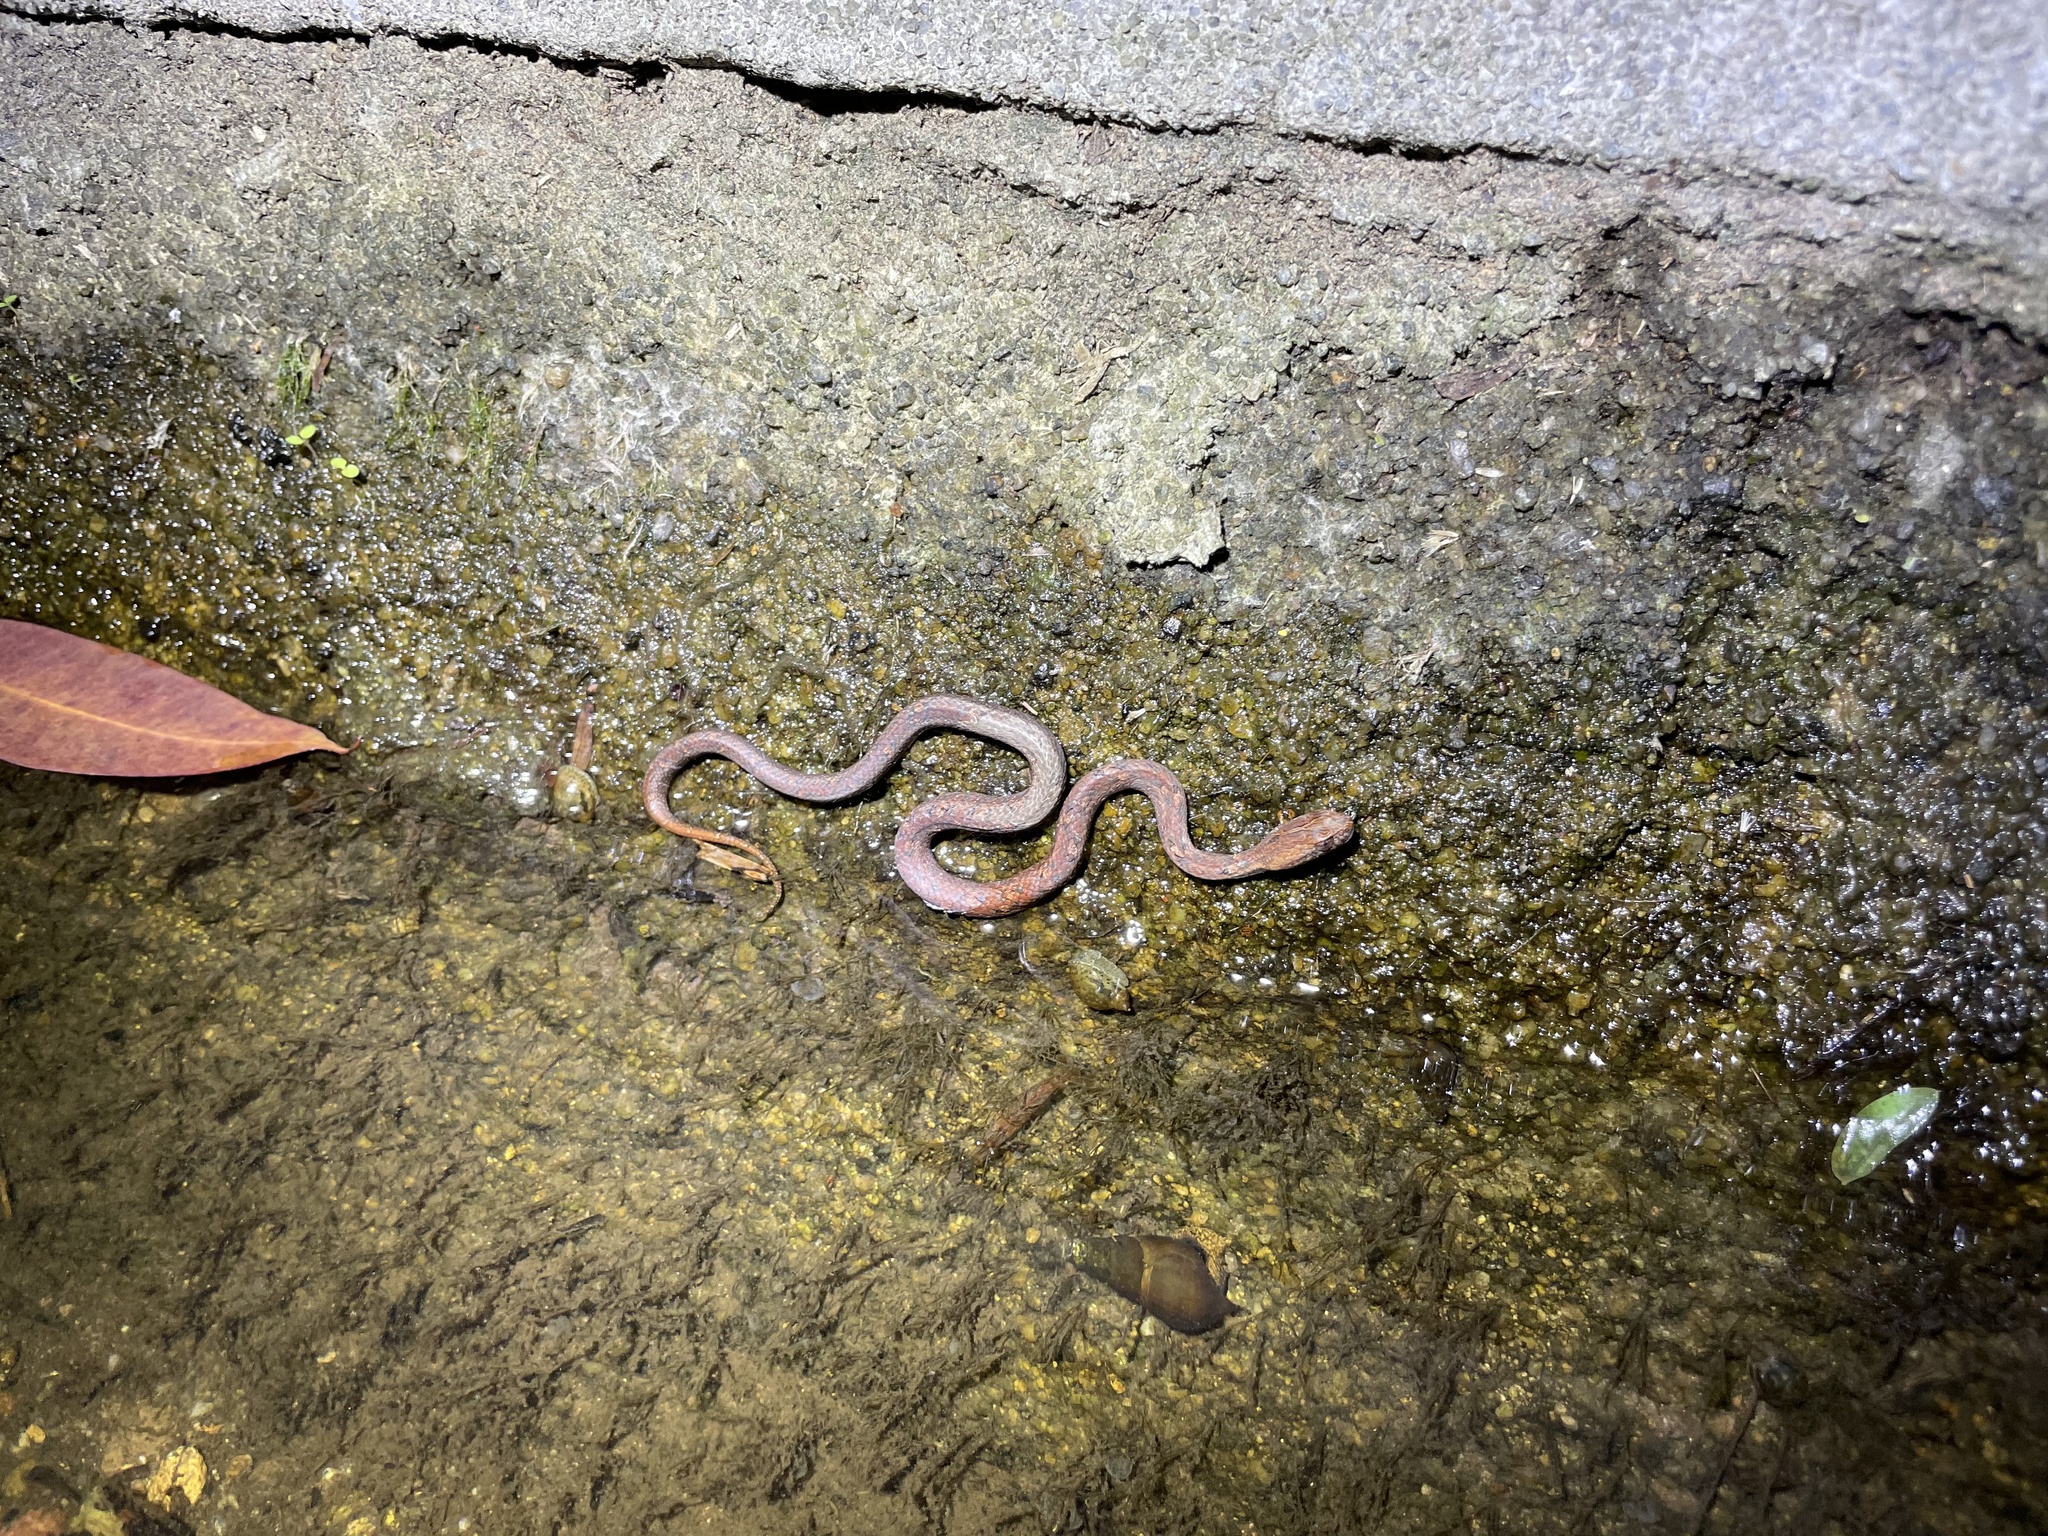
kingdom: Animalia
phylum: Chordata
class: Squamata
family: Pseudaspididae
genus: Psammodynastes
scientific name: Psammodynastes pulverulentus
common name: Common mock viper
